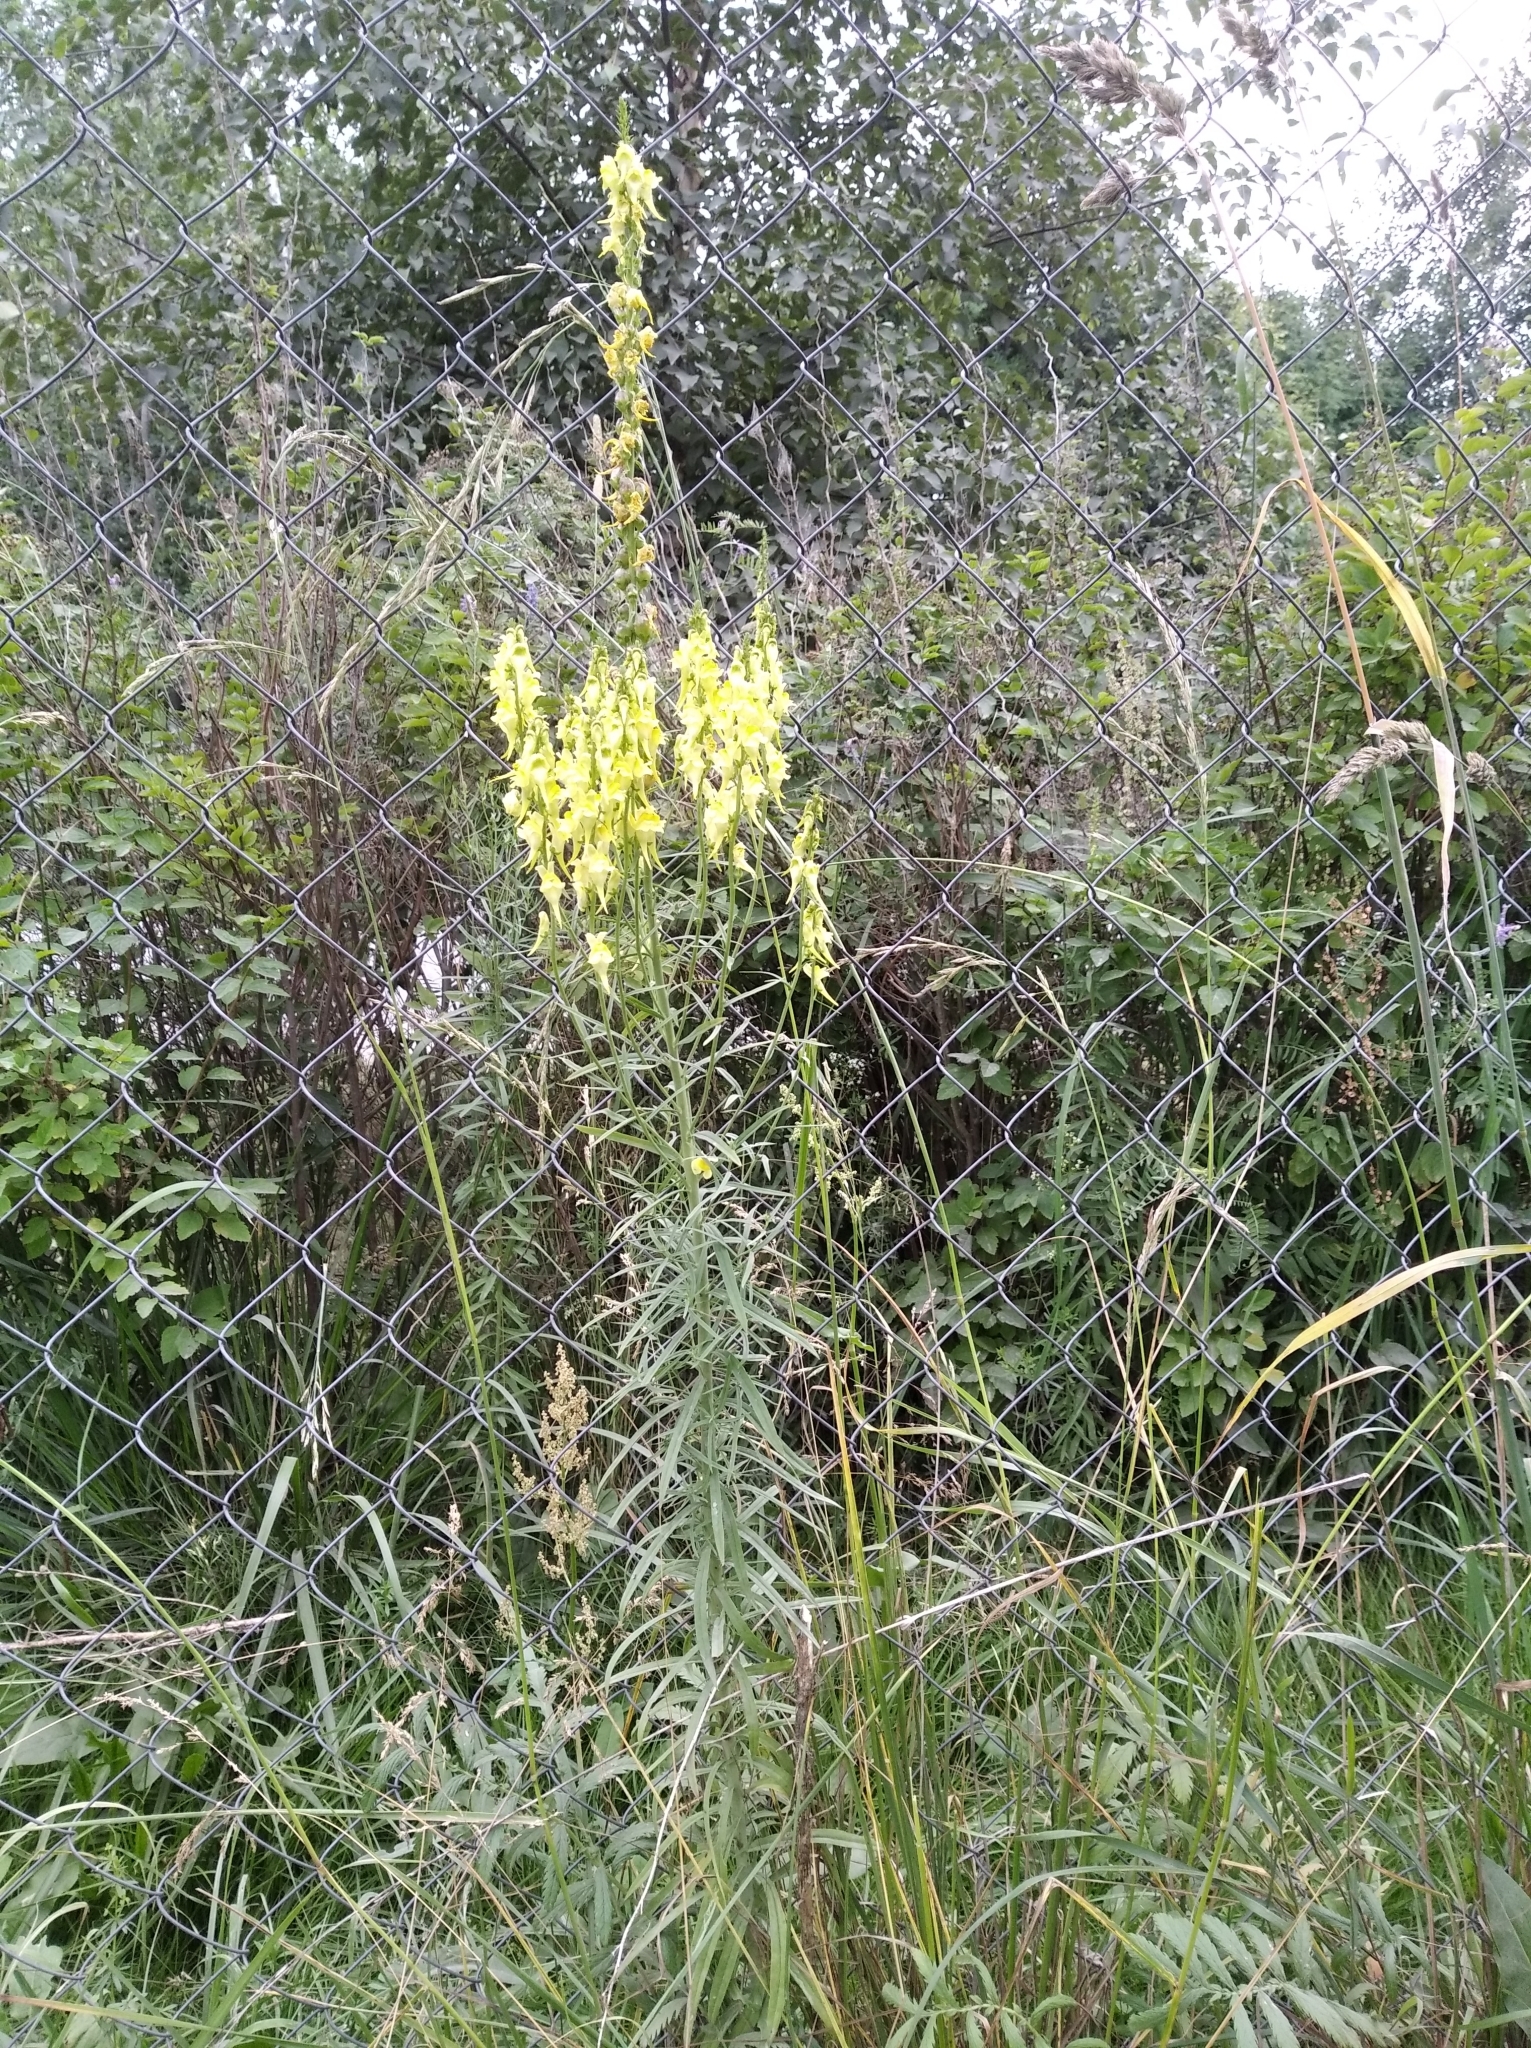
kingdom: Plantae
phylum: Tracheophyta
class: Magnoliopsida
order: Lamiales
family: Plantaginaceae
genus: Linaria
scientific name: Linaria vulgaris
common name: Butter and eggs
